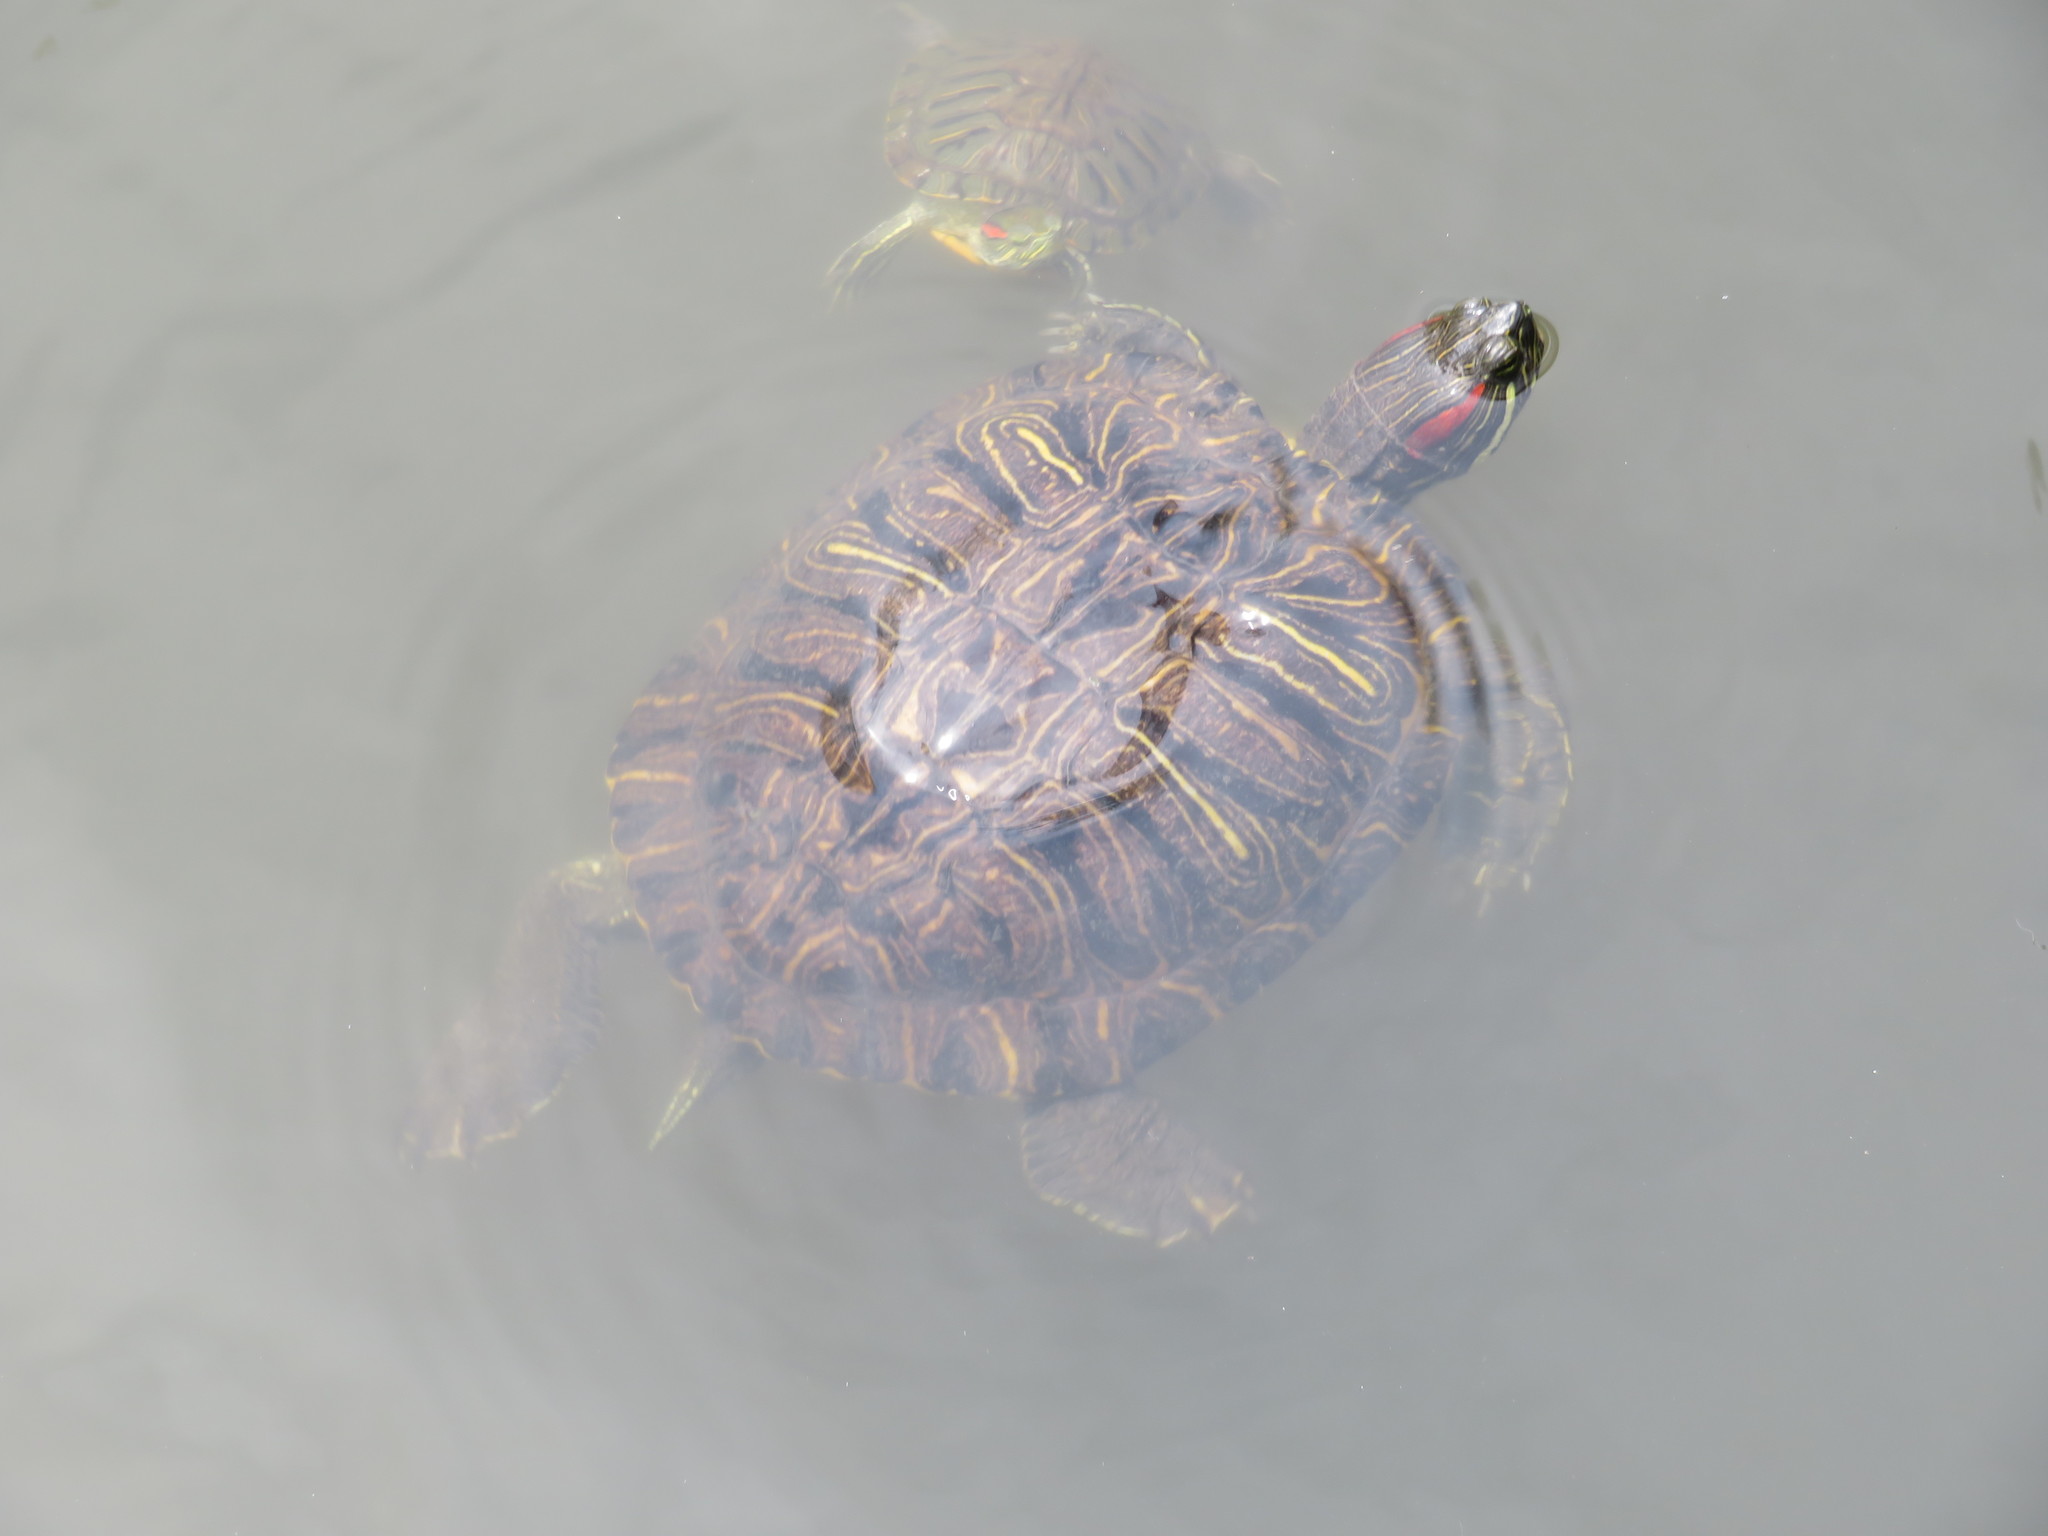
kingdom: Animalia
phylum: Chordata
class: Testudines
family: Emydidae
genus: Trachemys
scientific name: Trachemys scripta
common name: Slider
